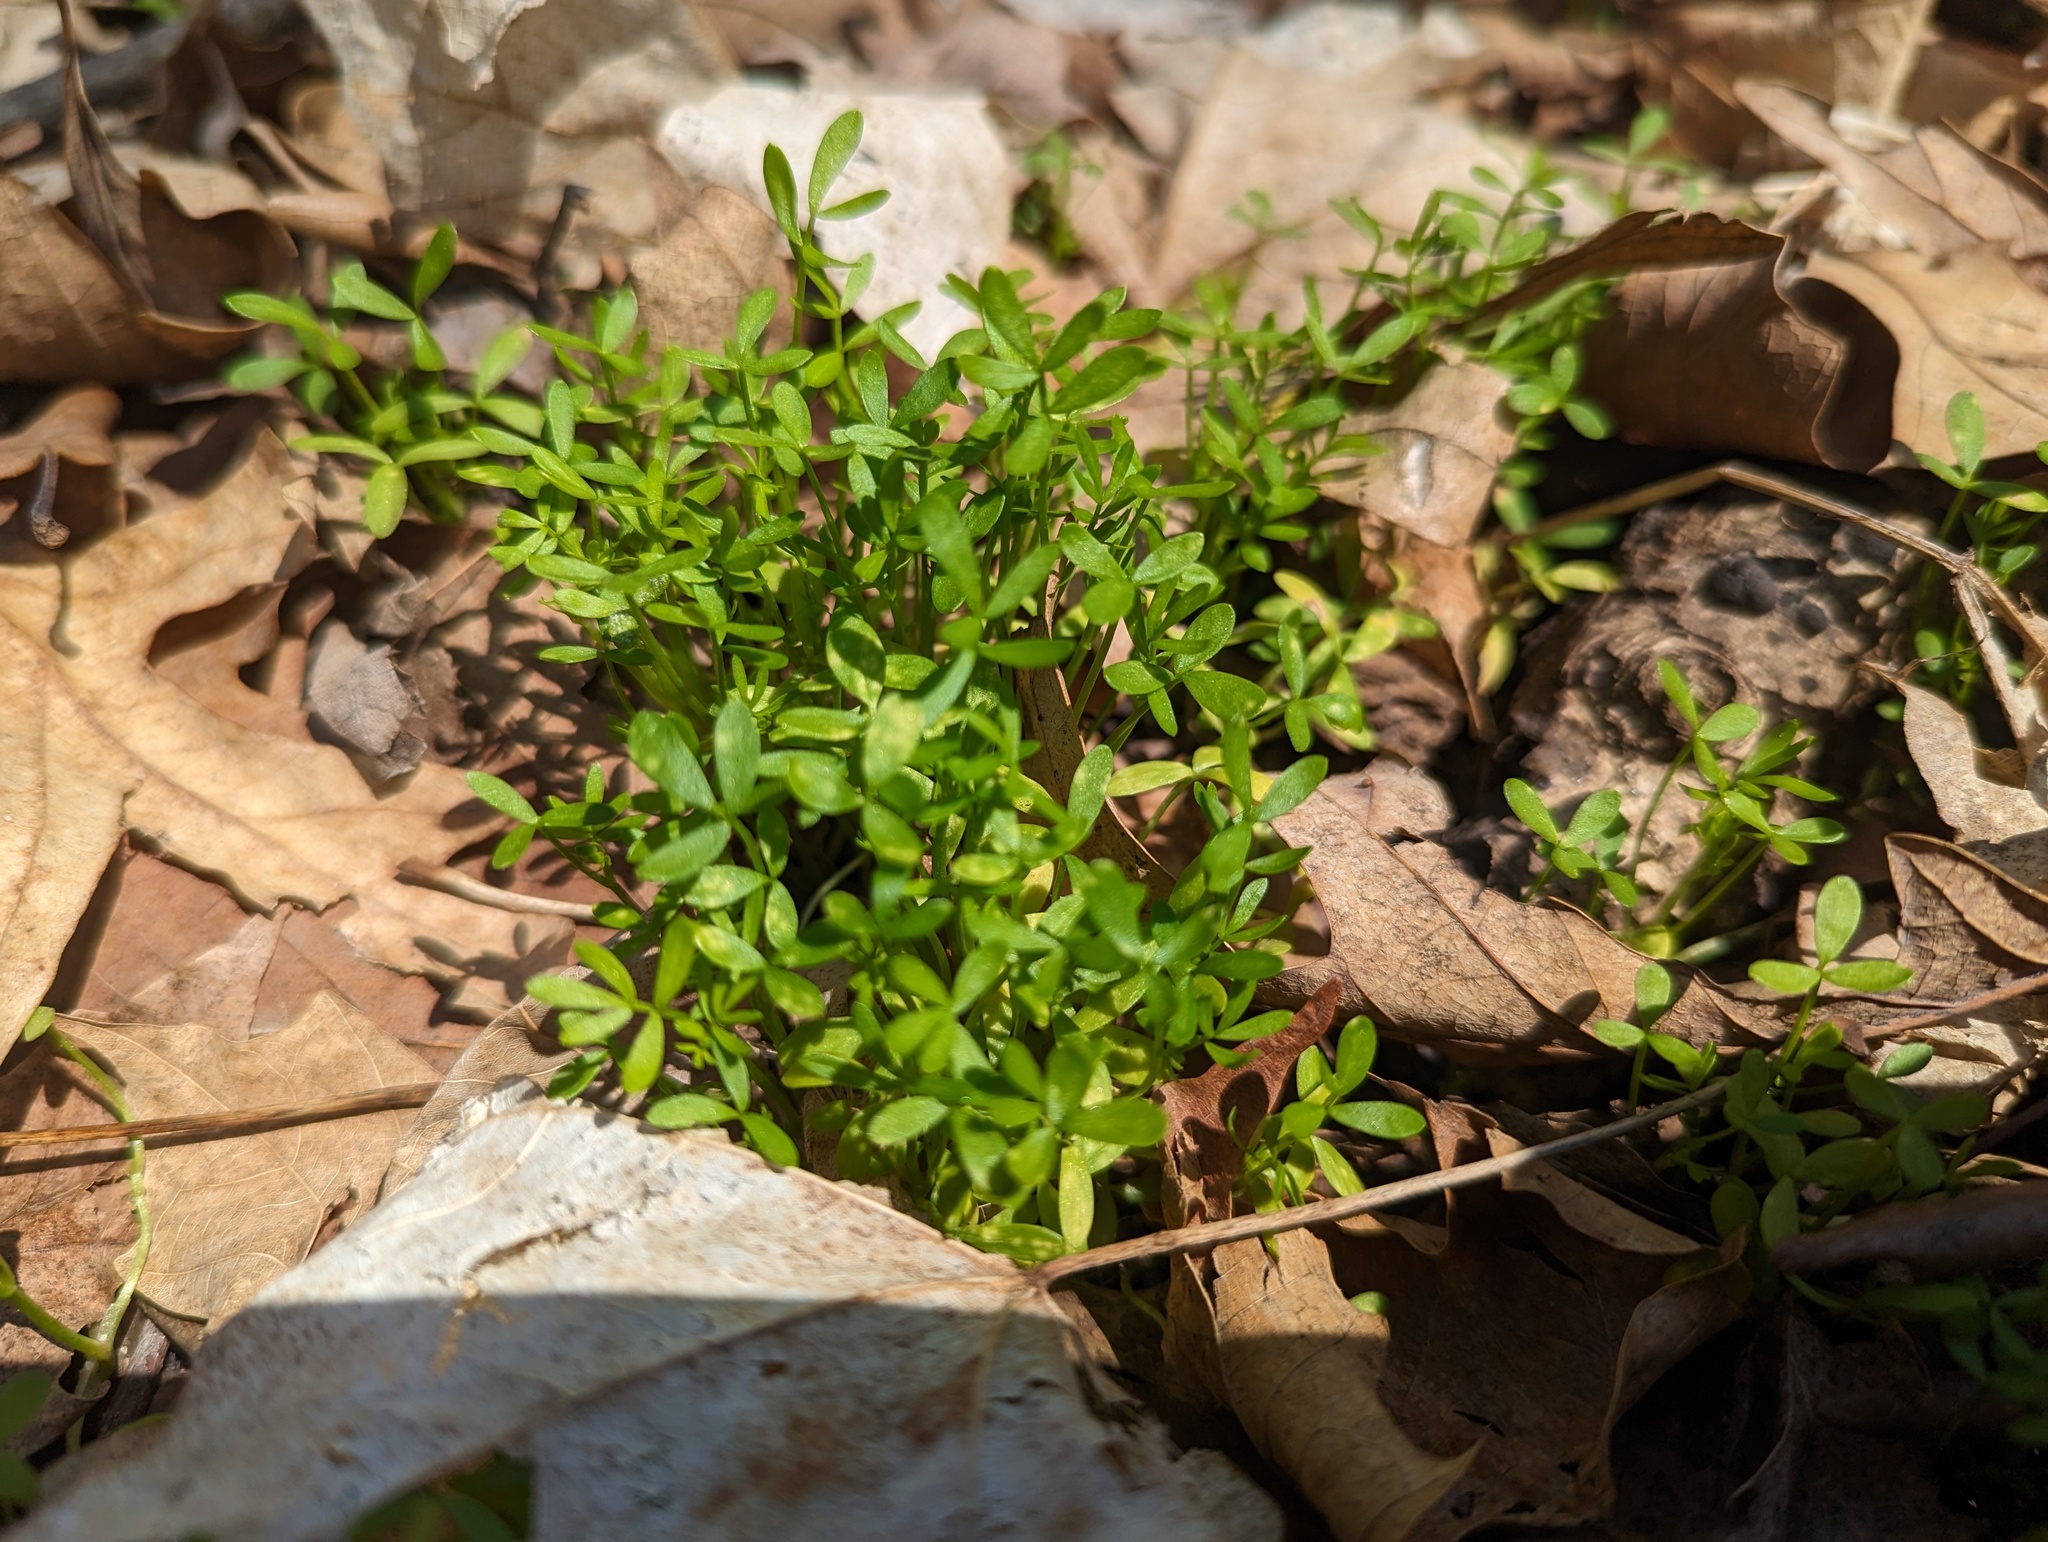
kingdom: Plantae
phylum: Tracheophyta
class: Magnoliopsida
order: Brassicales
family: Limnanthaceae
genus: Floerkea
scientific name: Floerkea proserpinacoides
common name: False mermaid
